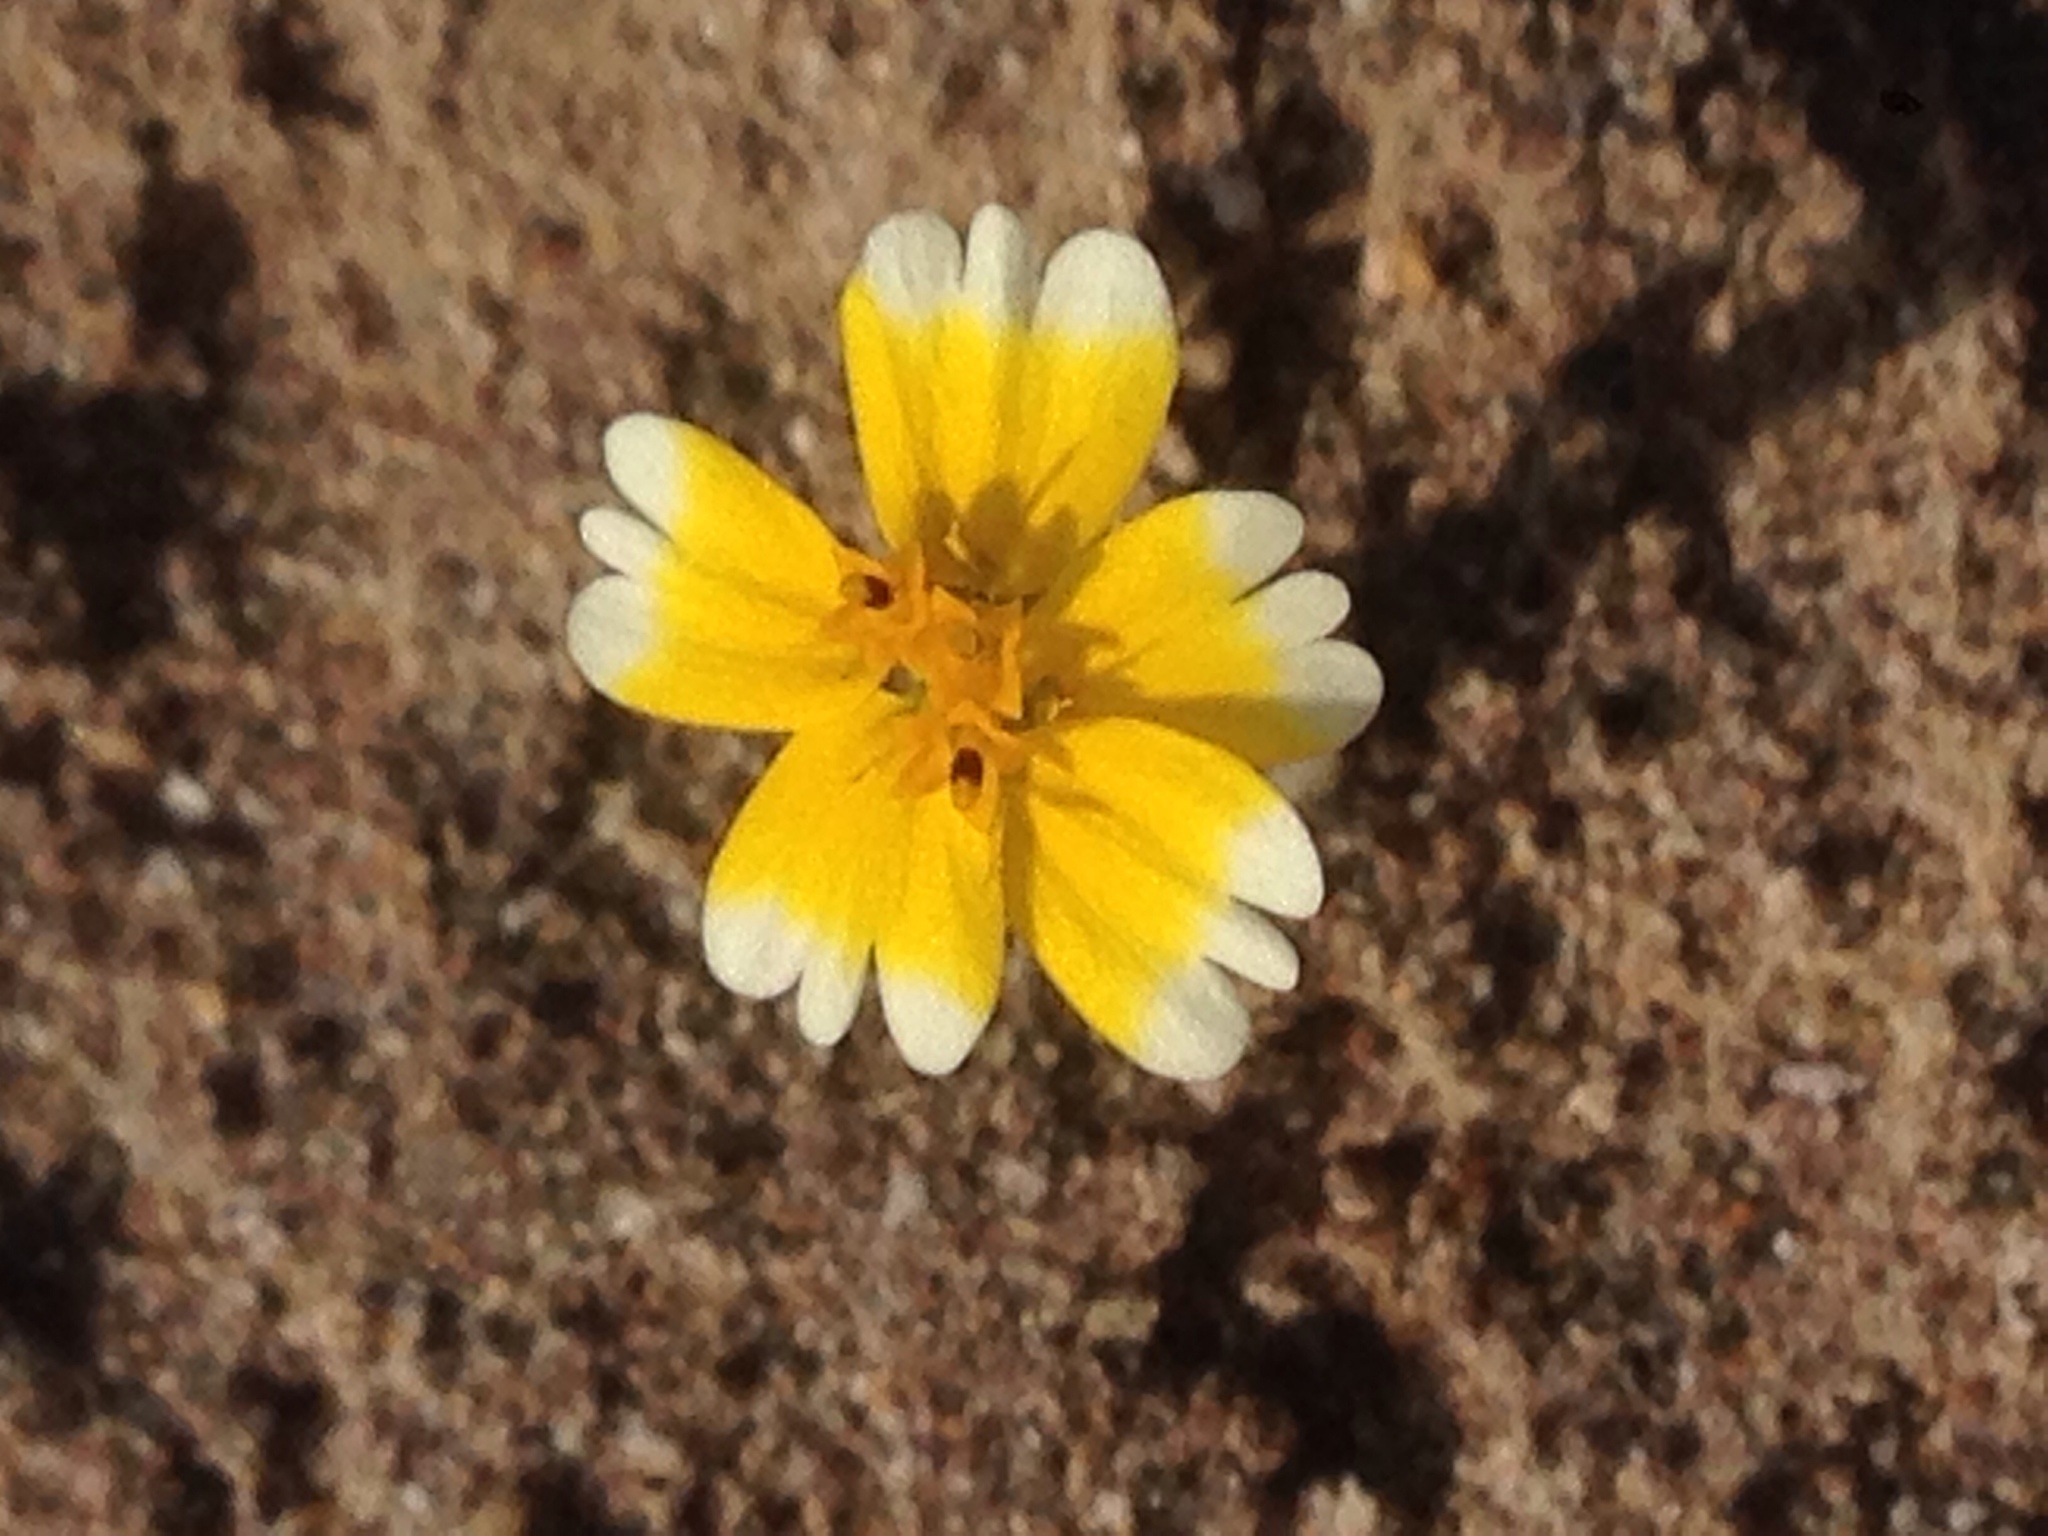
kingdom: Plantae
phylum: Tracheophyta
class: Magnoliopsida
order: Asterales
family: Asteraceae
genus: Layia
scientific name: Layia platyglossa
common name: Tidy-tips
